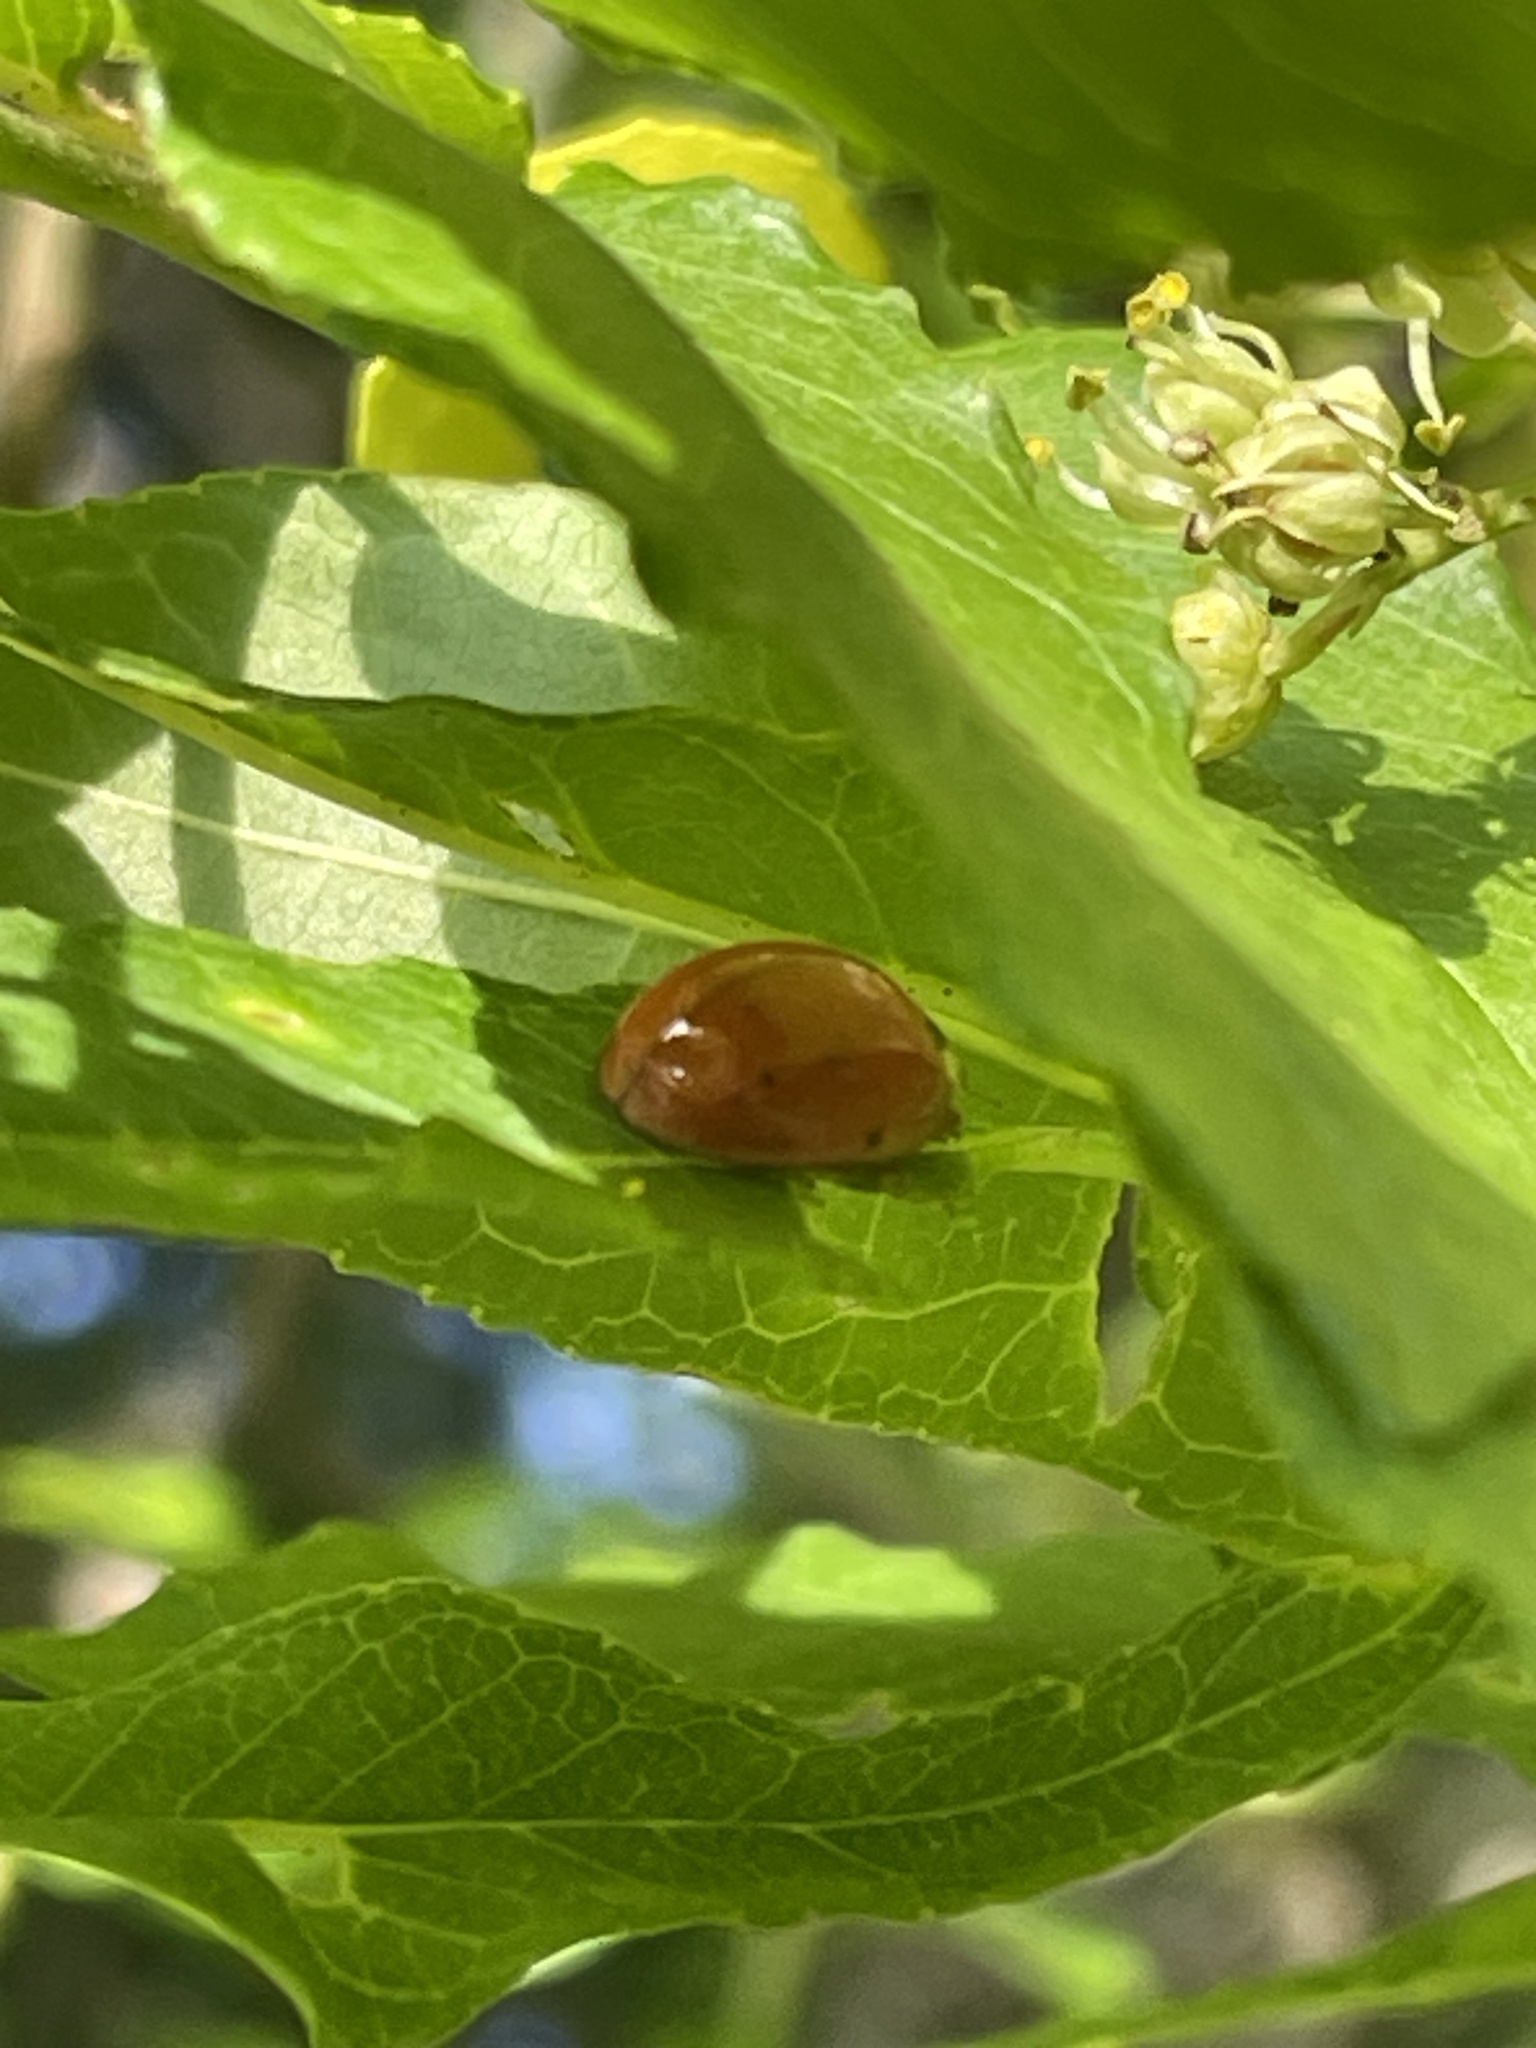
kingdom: Animalia
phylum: Arthropoda
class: Insecta
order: Coleoptera
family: Coccinellidae
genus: Harmonia
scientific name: Harmonia axyridis
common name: Harlequin ladybird
